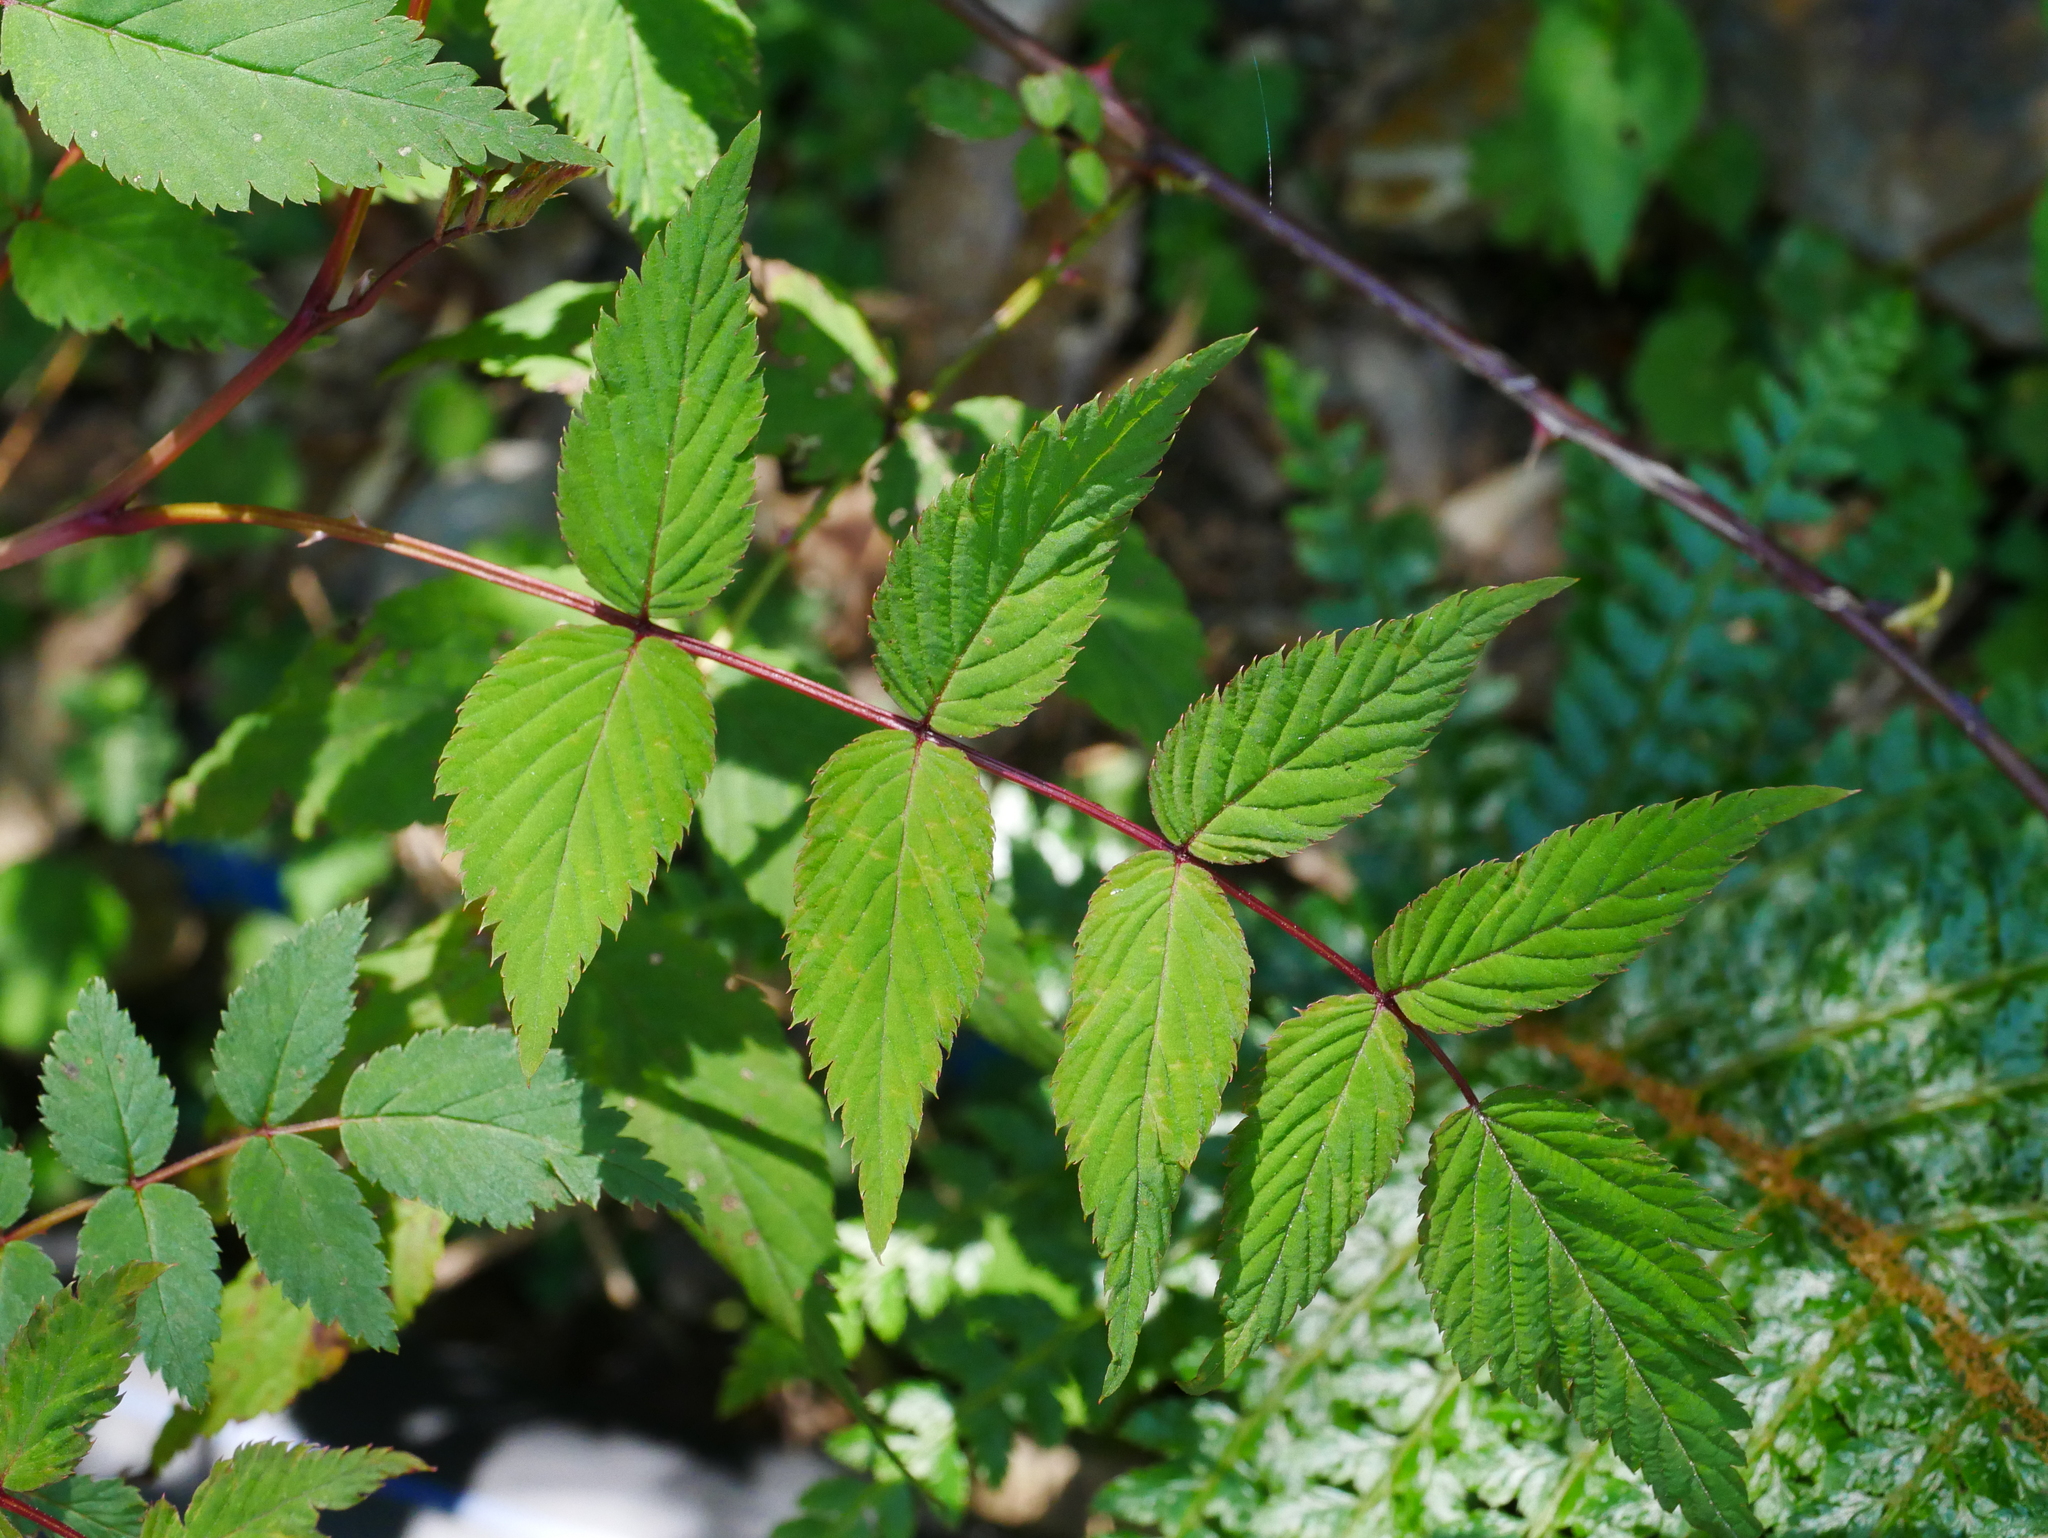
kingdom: Plantae
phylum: Tracheophyta
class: Magnoliopsida
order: Rosales
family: Rosaceae
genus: Rubus
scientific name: Rubus inopertus
